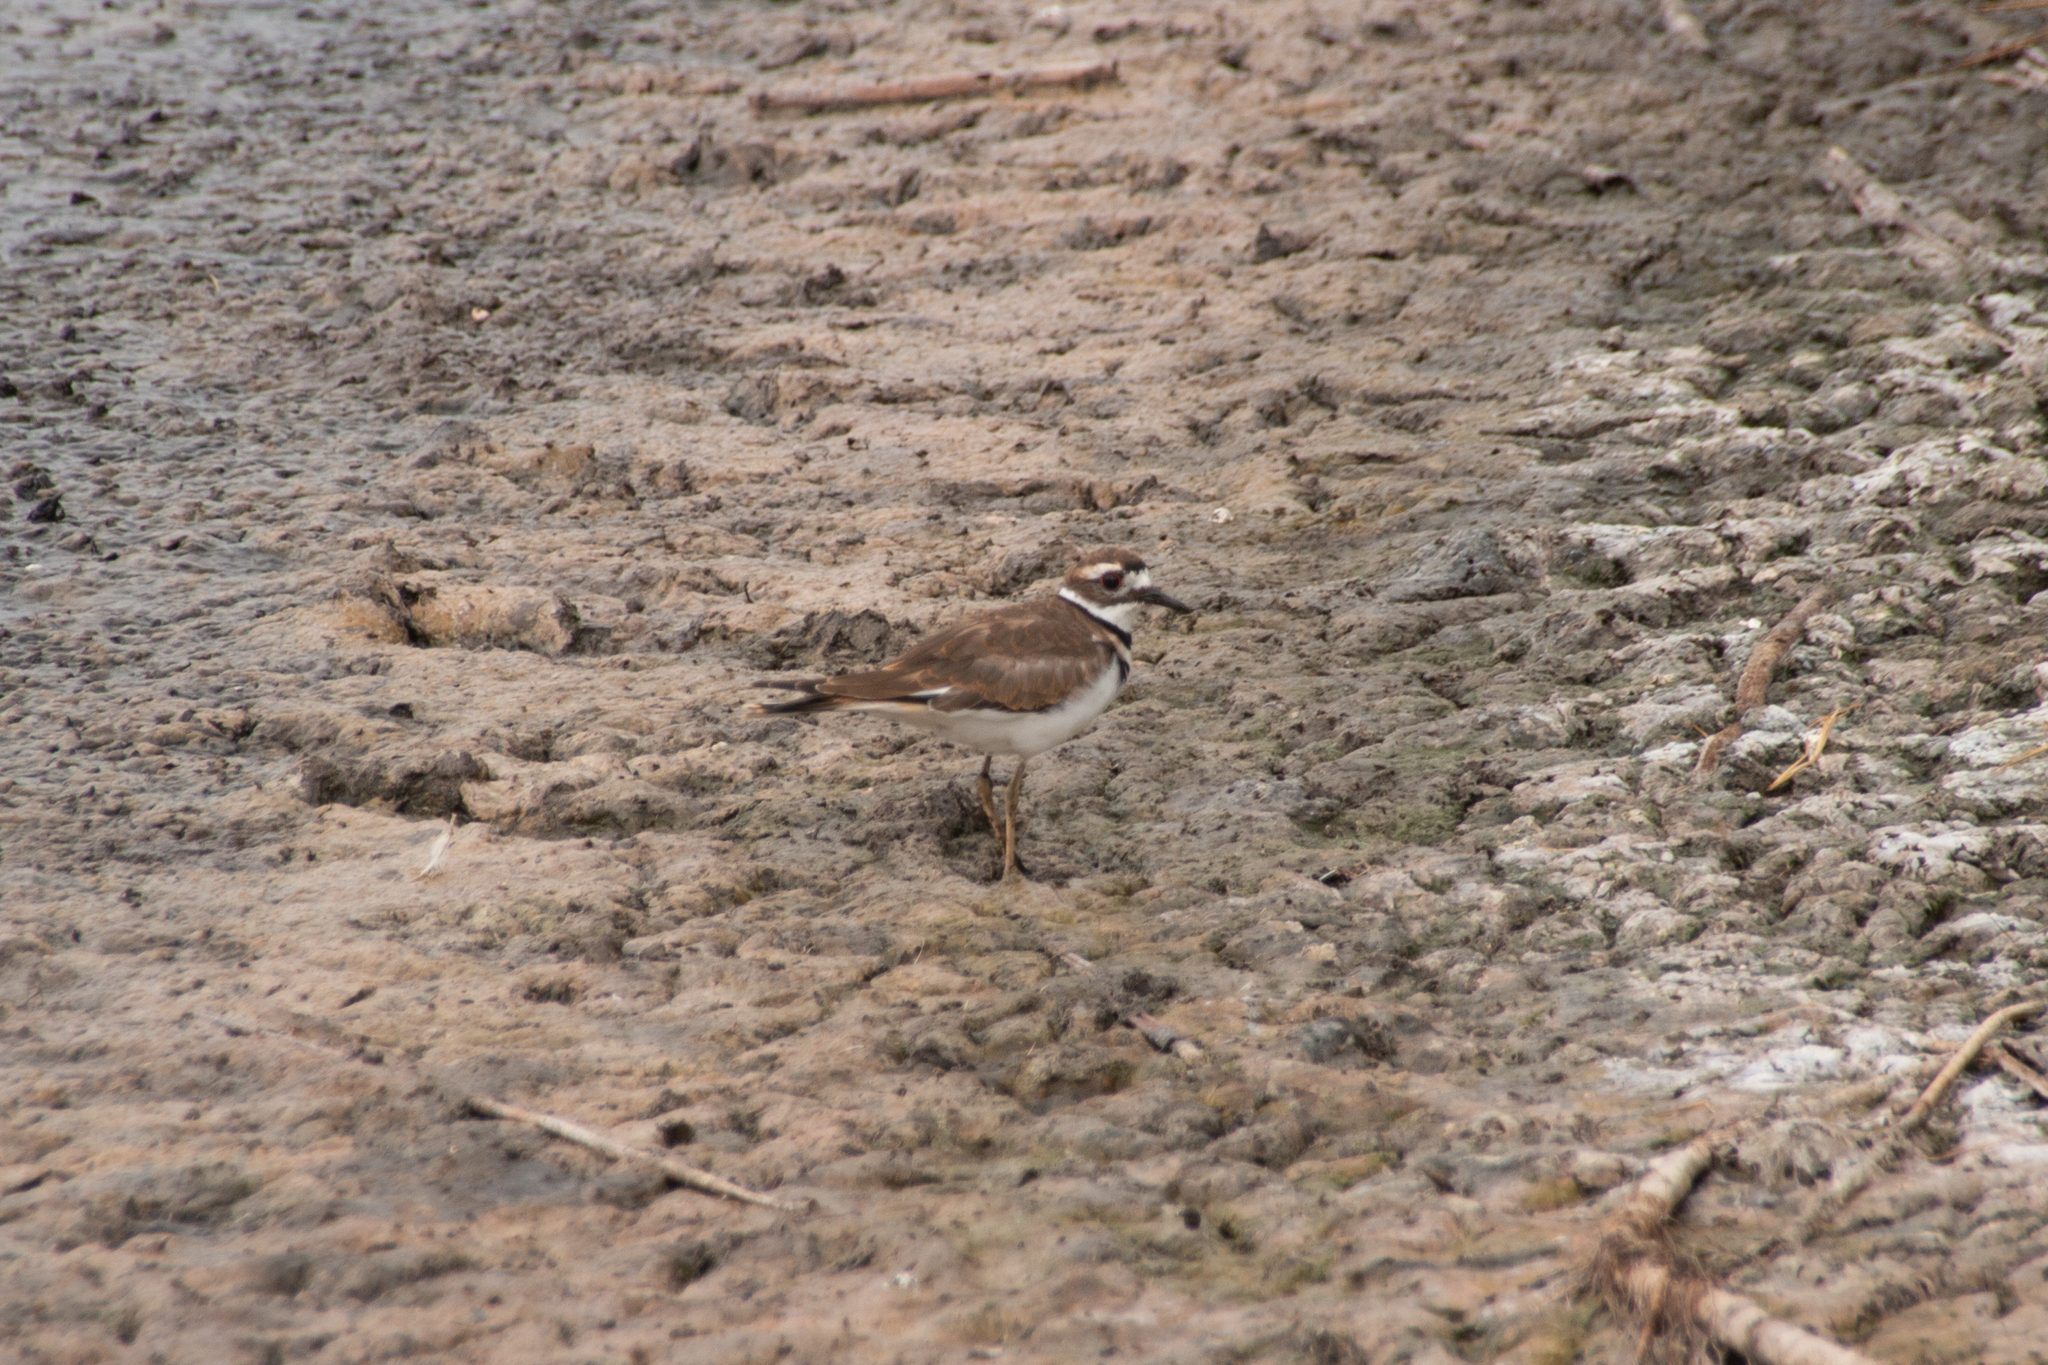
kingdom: Animalia
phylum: Chordata
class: Aves
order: Charadriiformes
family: Charadriidae
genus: Charadrius
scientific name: Charadrius vociferus
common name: Killdeer
